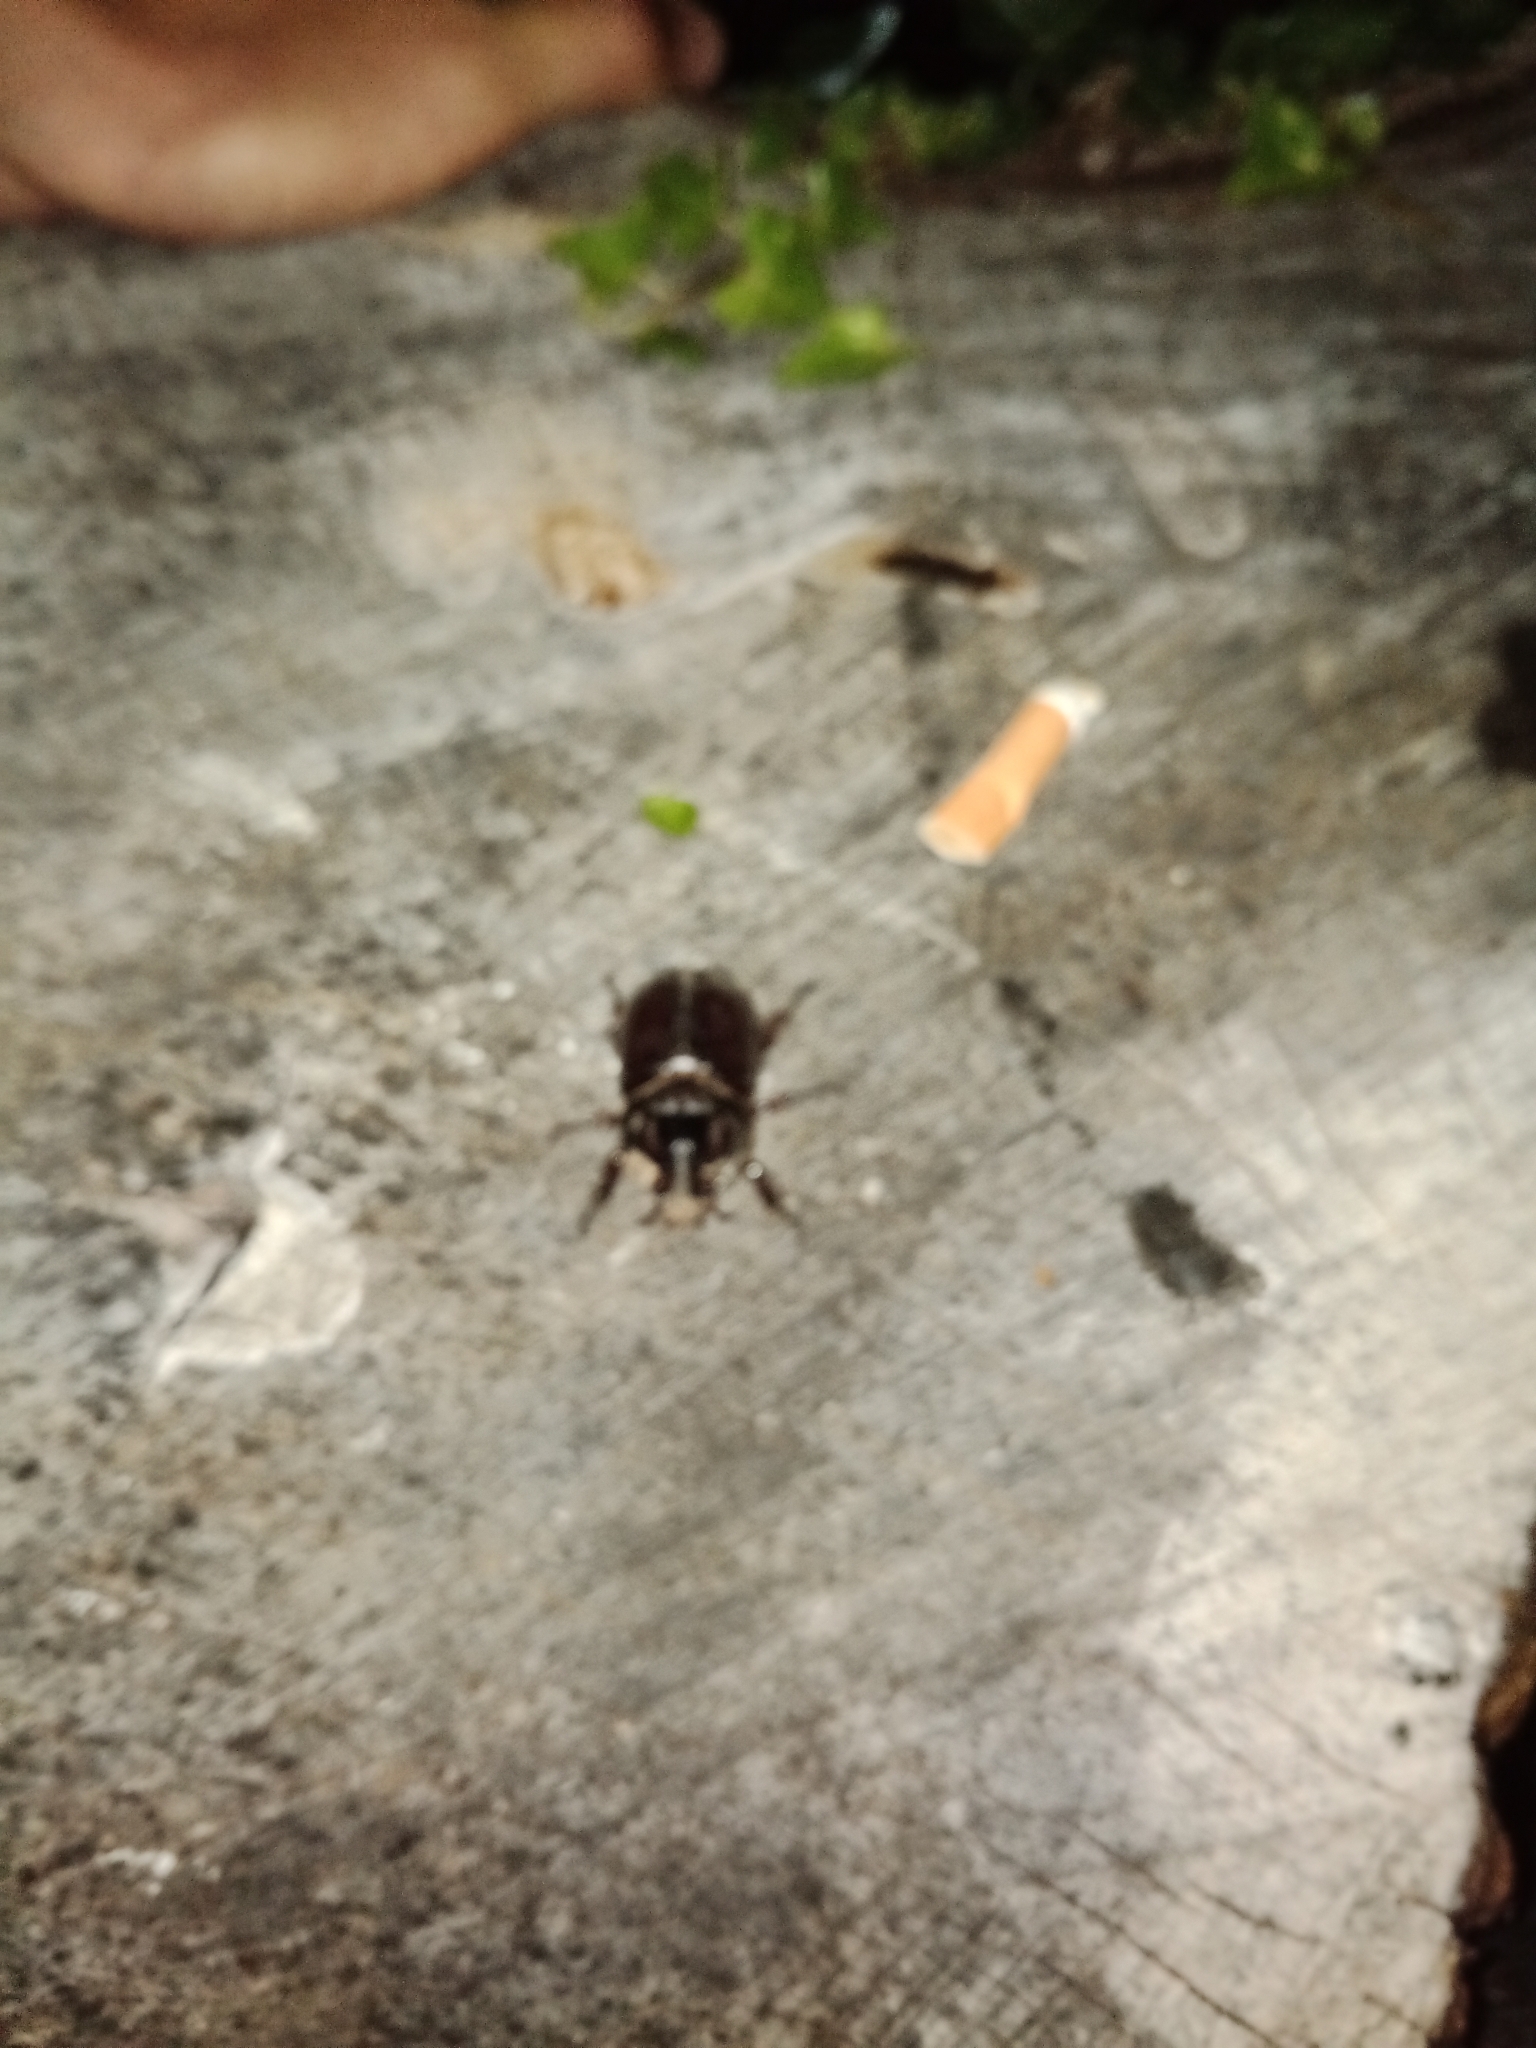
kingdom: Animalia
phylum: Arthropoda
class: Insecta
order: Coleoptera
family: Scarabaeidae
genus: Oryctes
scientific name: Oryctes nasicornis
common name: European rhinoceros beetle
